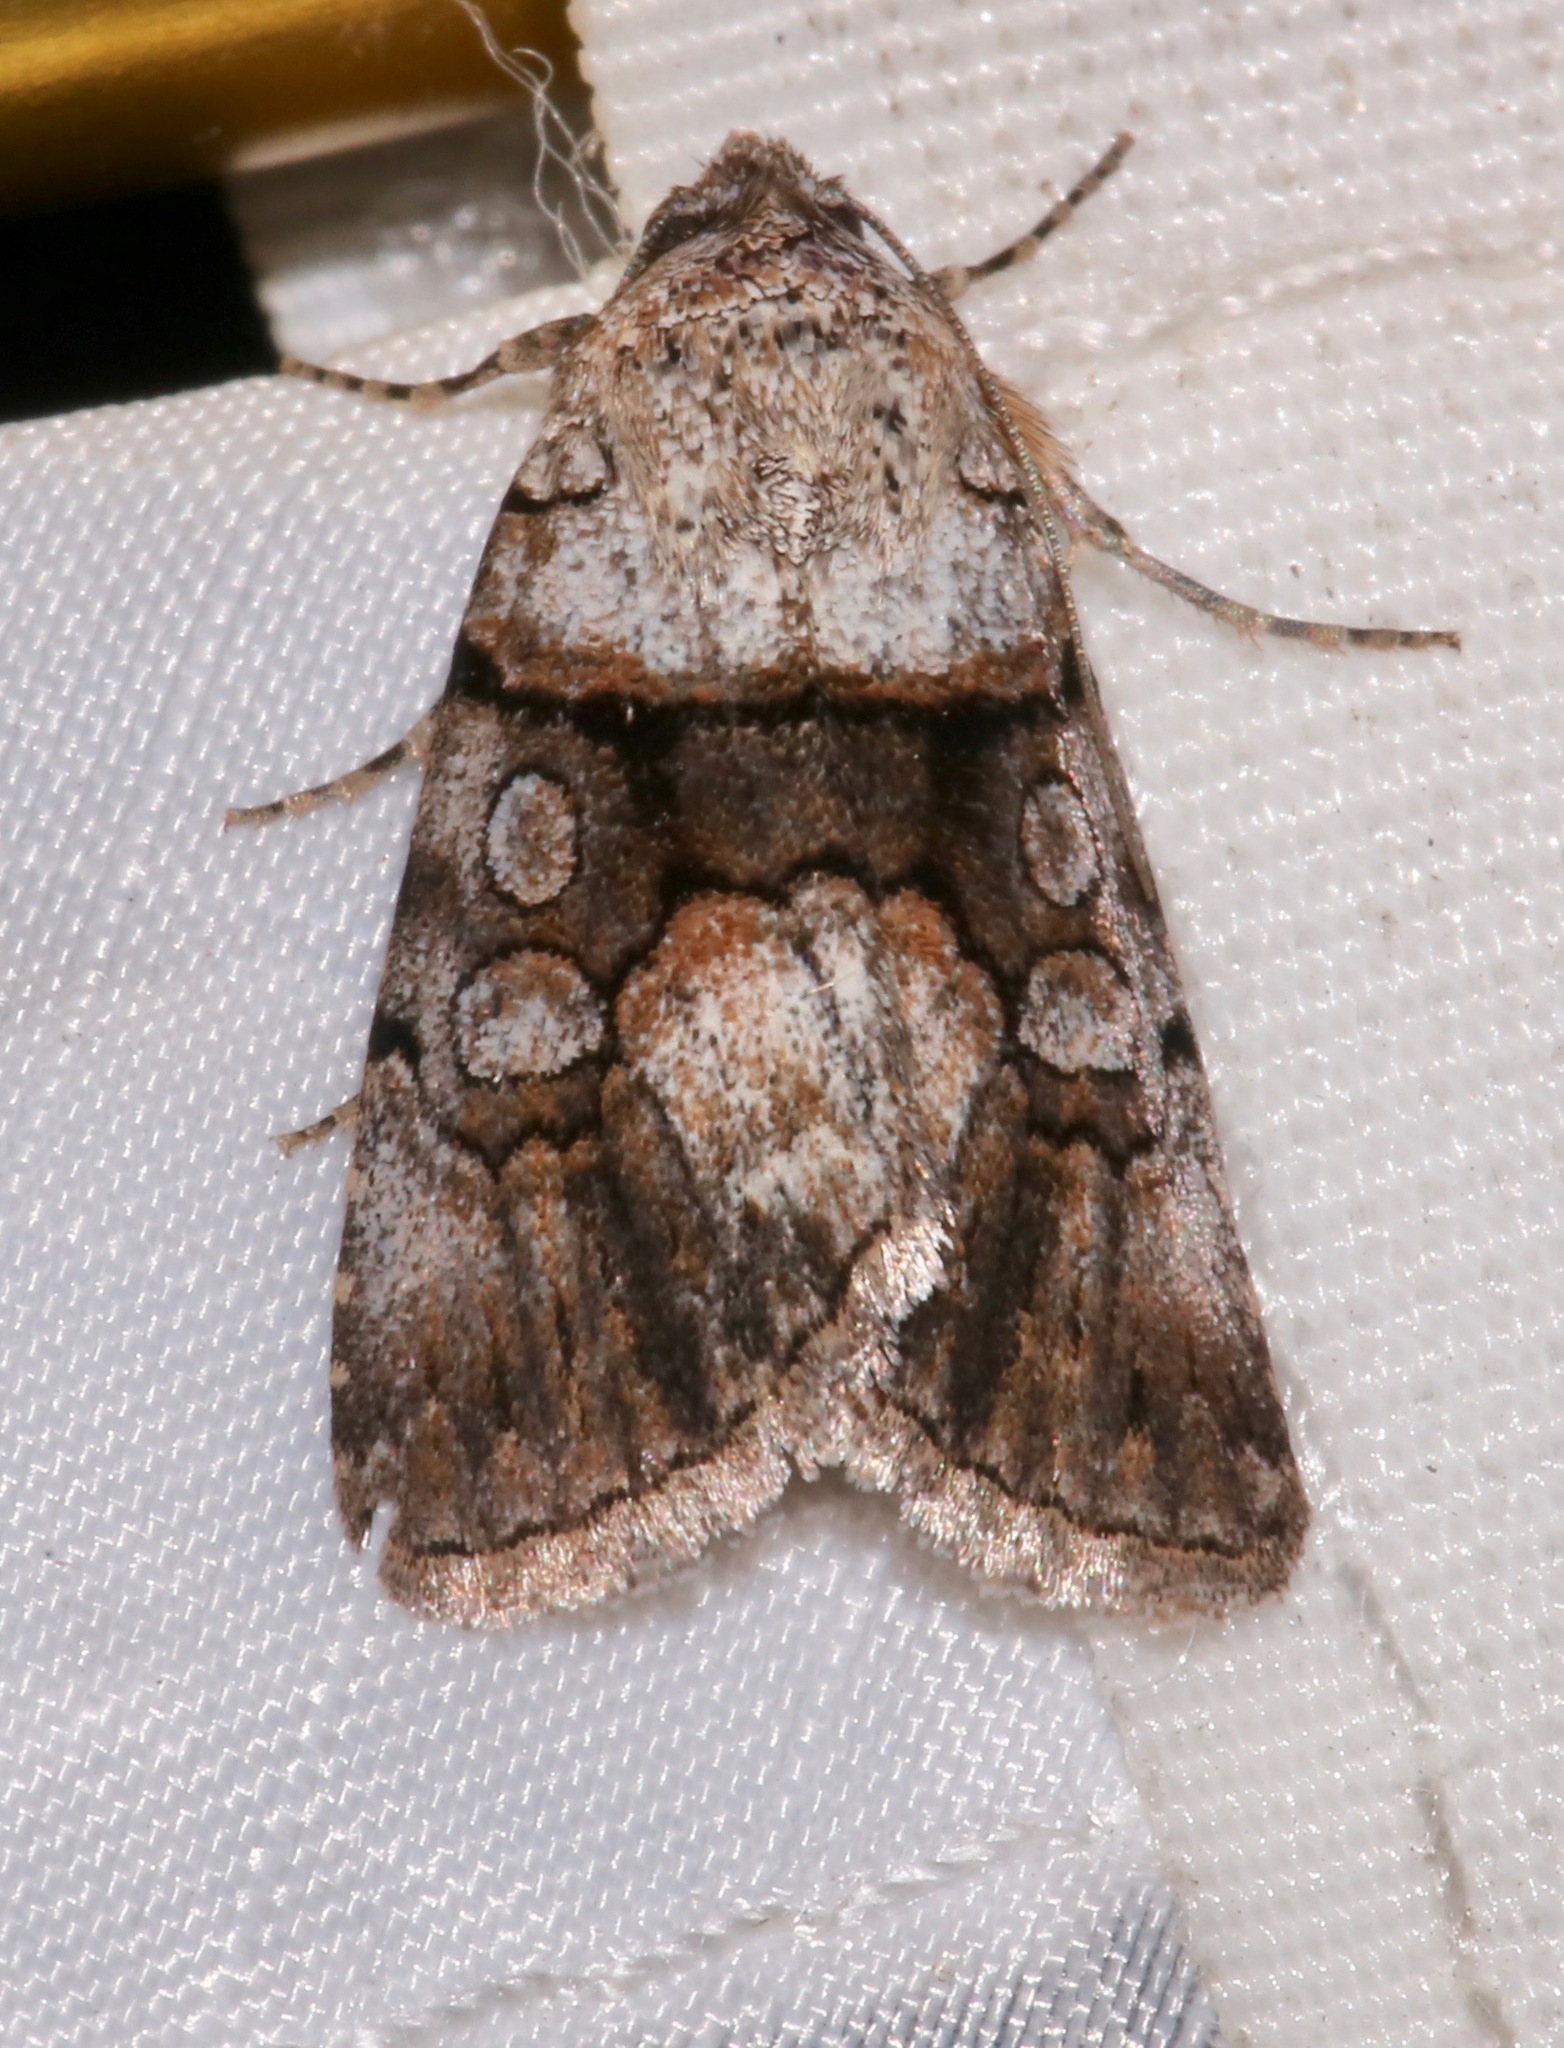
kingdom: Animalia
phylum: Arthropoda
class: Insecta
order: Lepidoptera
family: Noctuidae
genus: Sympistis
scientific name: Sympistis pernotata
